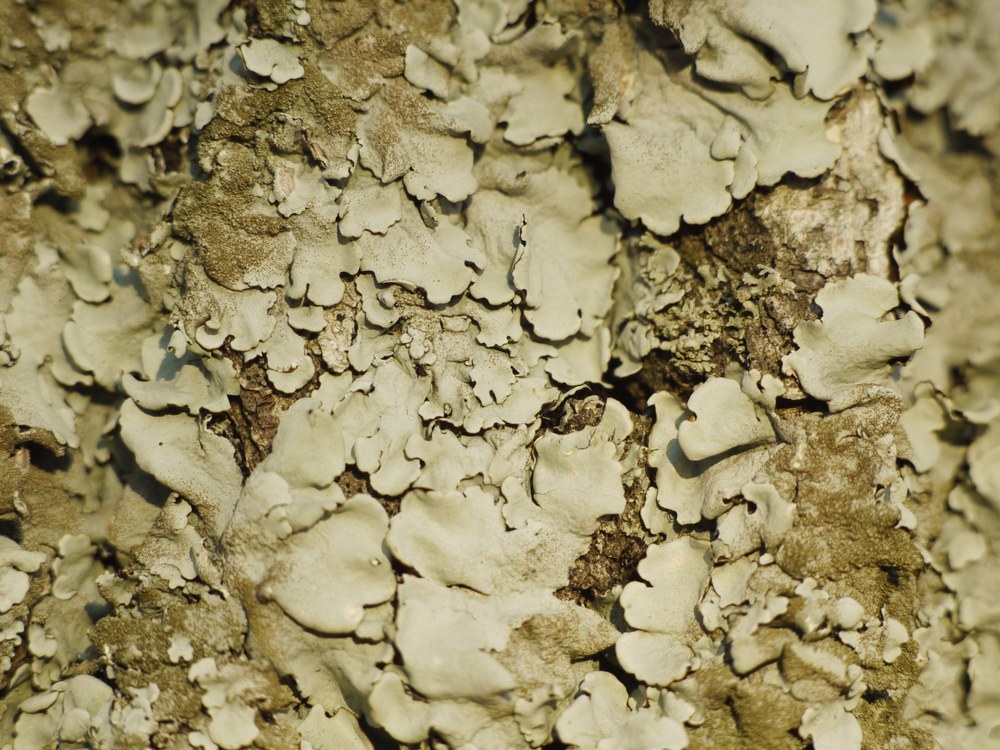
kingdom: Fungi
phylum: Ascomycota
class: Lecanoromycetes
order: Lecanorales
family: Parmeliaceae
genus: Parmelina
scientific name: Parmelina tiliacea
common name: Linden shield lichen
